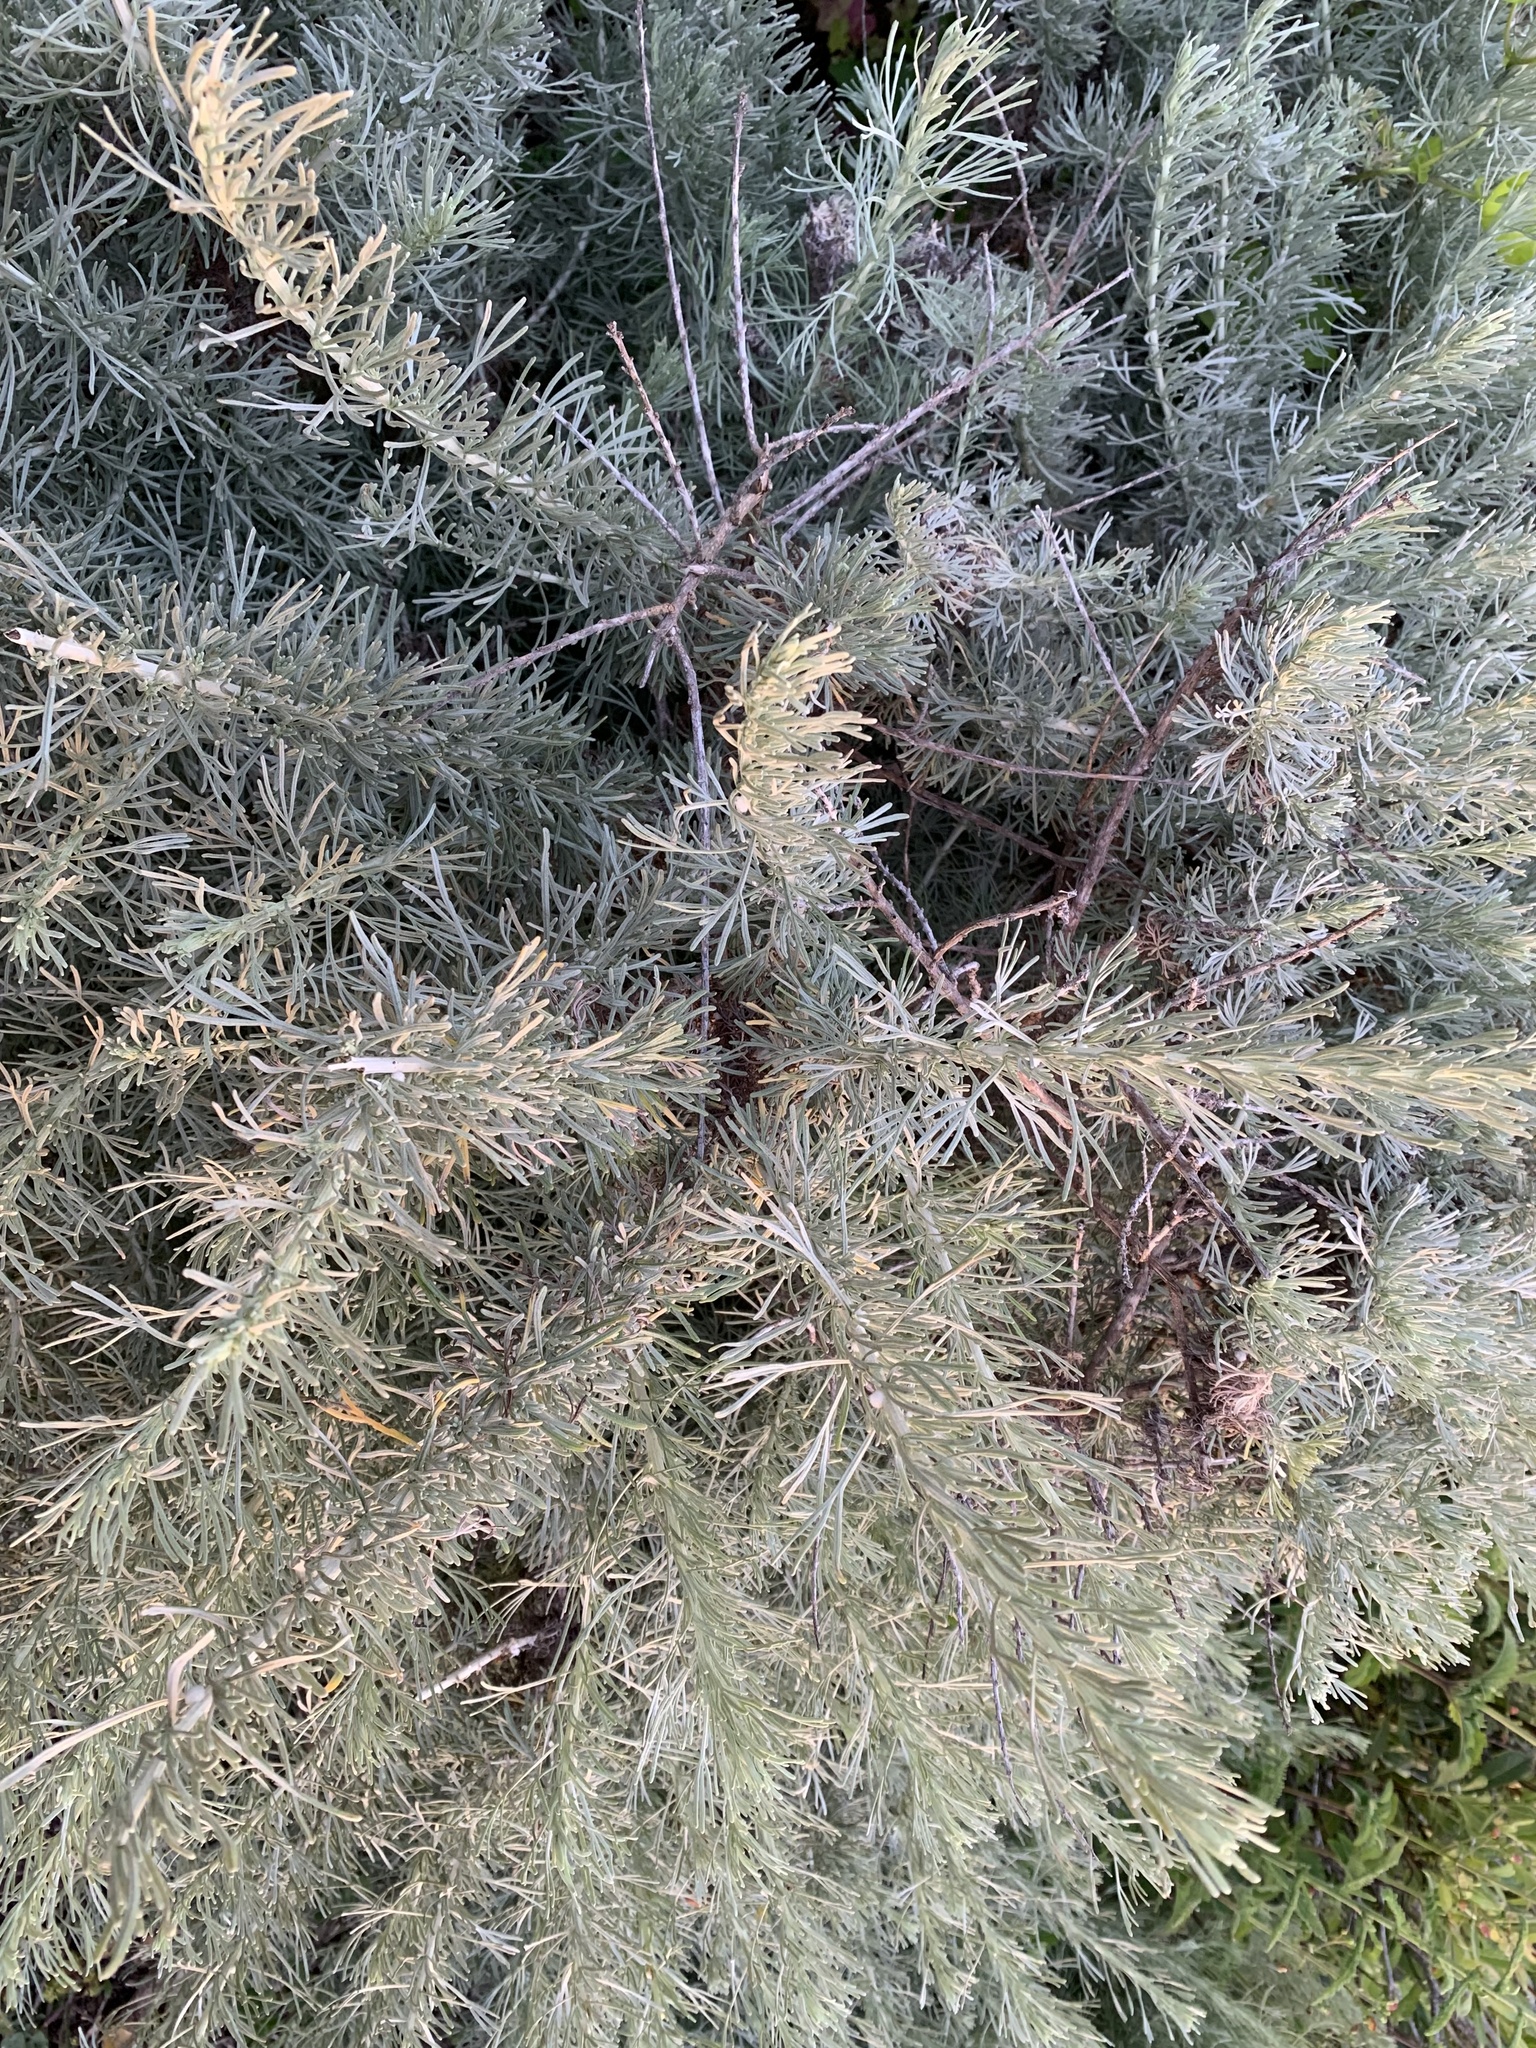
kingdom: Plantae
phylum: Tracheophyta
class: Magnoliopsida
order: Asterales
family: Asteraceae
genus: Artemisia
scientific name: Artemisia californica
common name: California sagebrush
